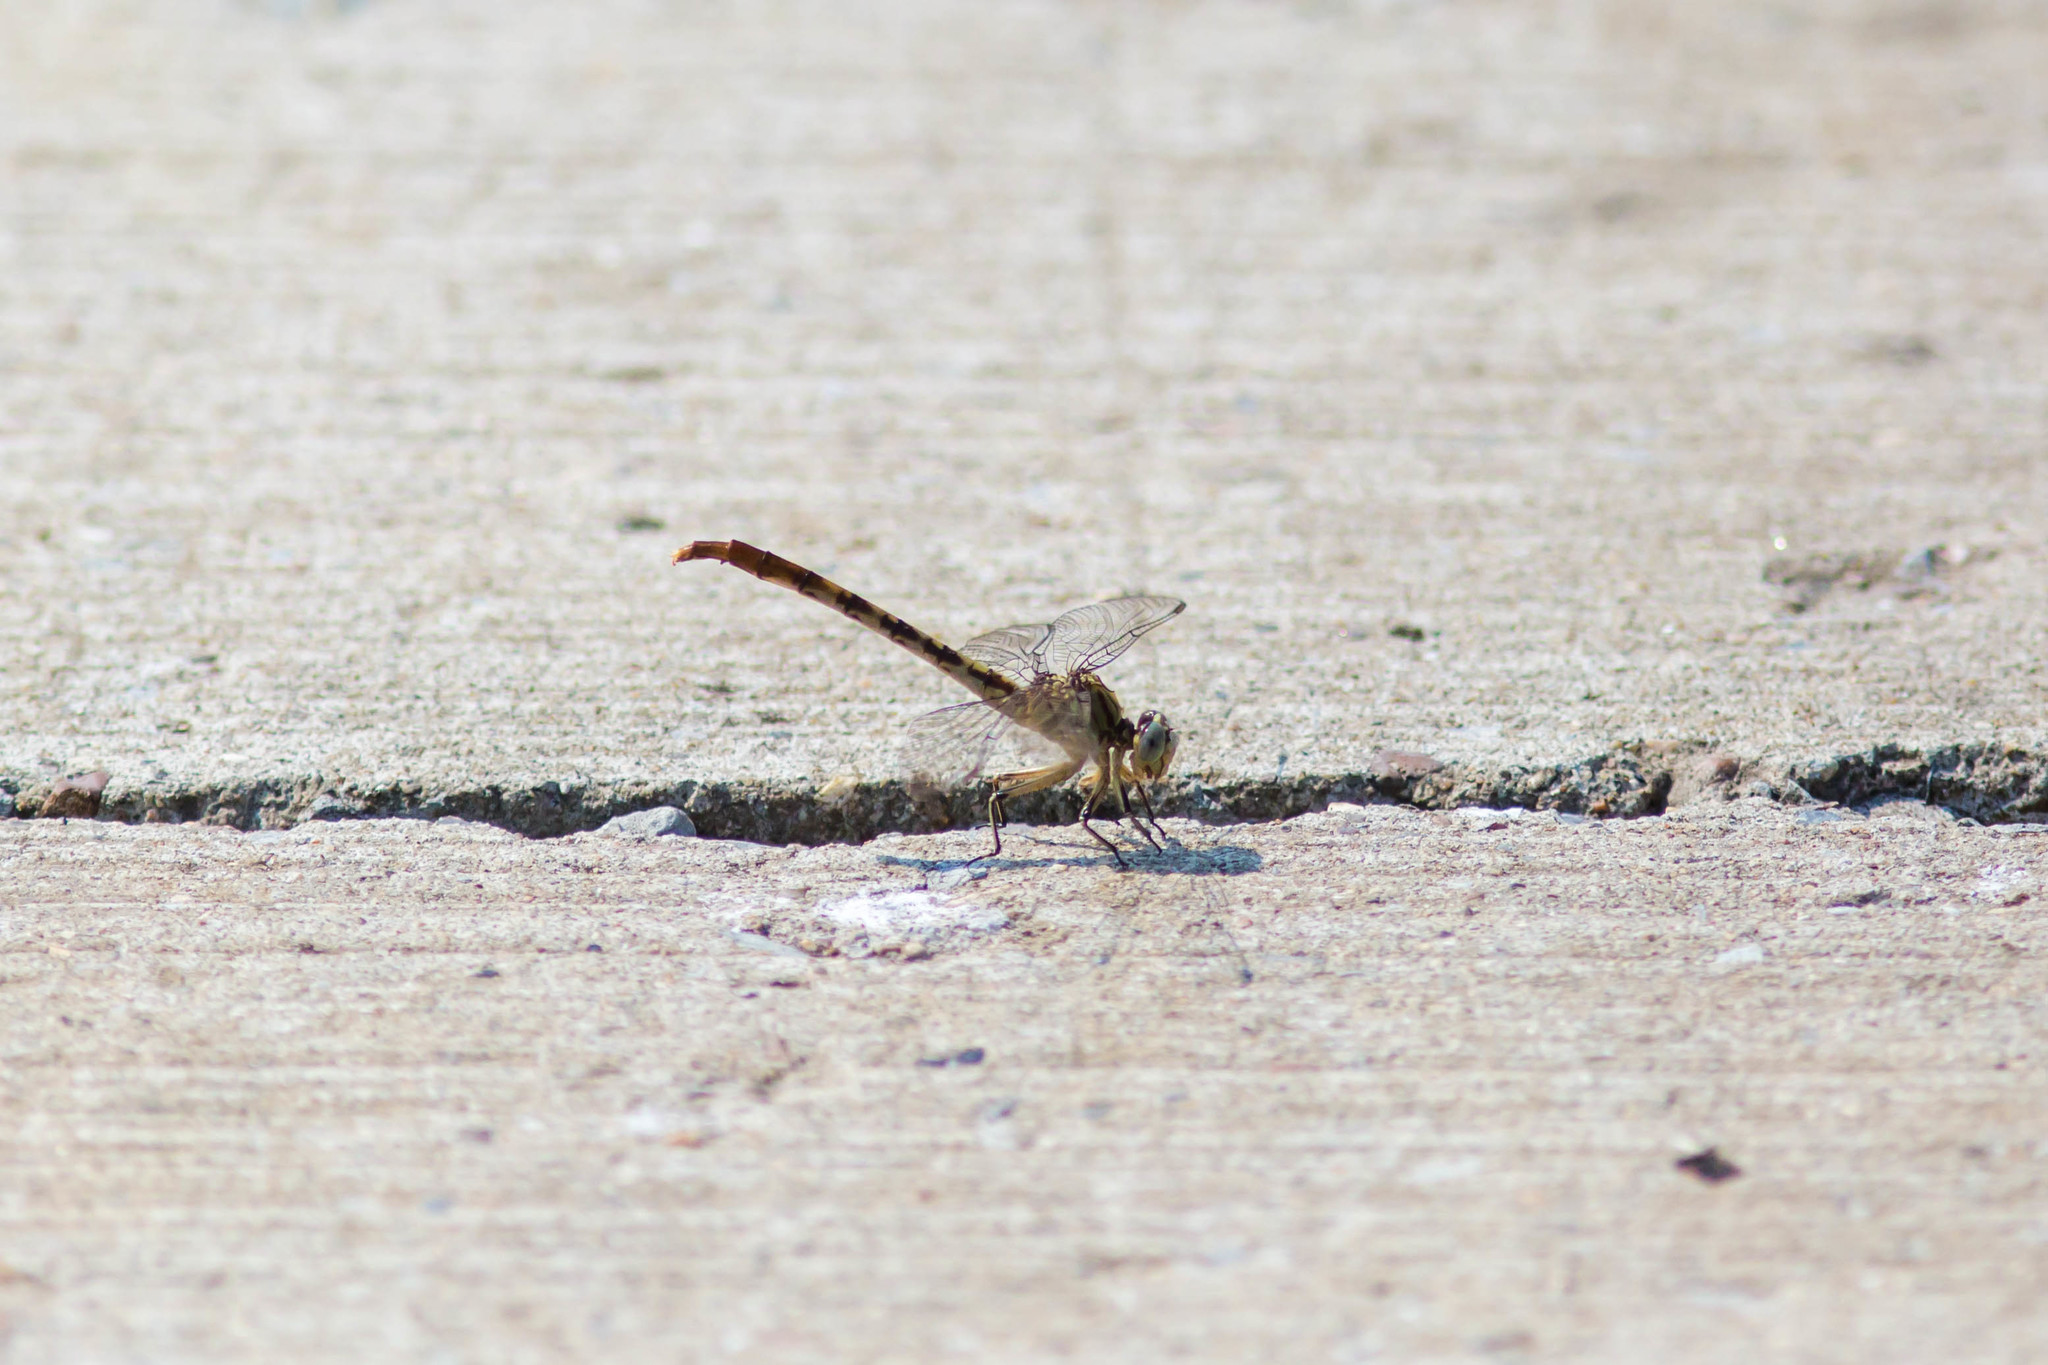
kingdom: Animalia
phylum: Arthropoda
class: Insecta
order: Odonata
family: Gomphidae
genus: Arigomphus
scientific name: Arigomphus submedianus
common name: Jade clubtail
